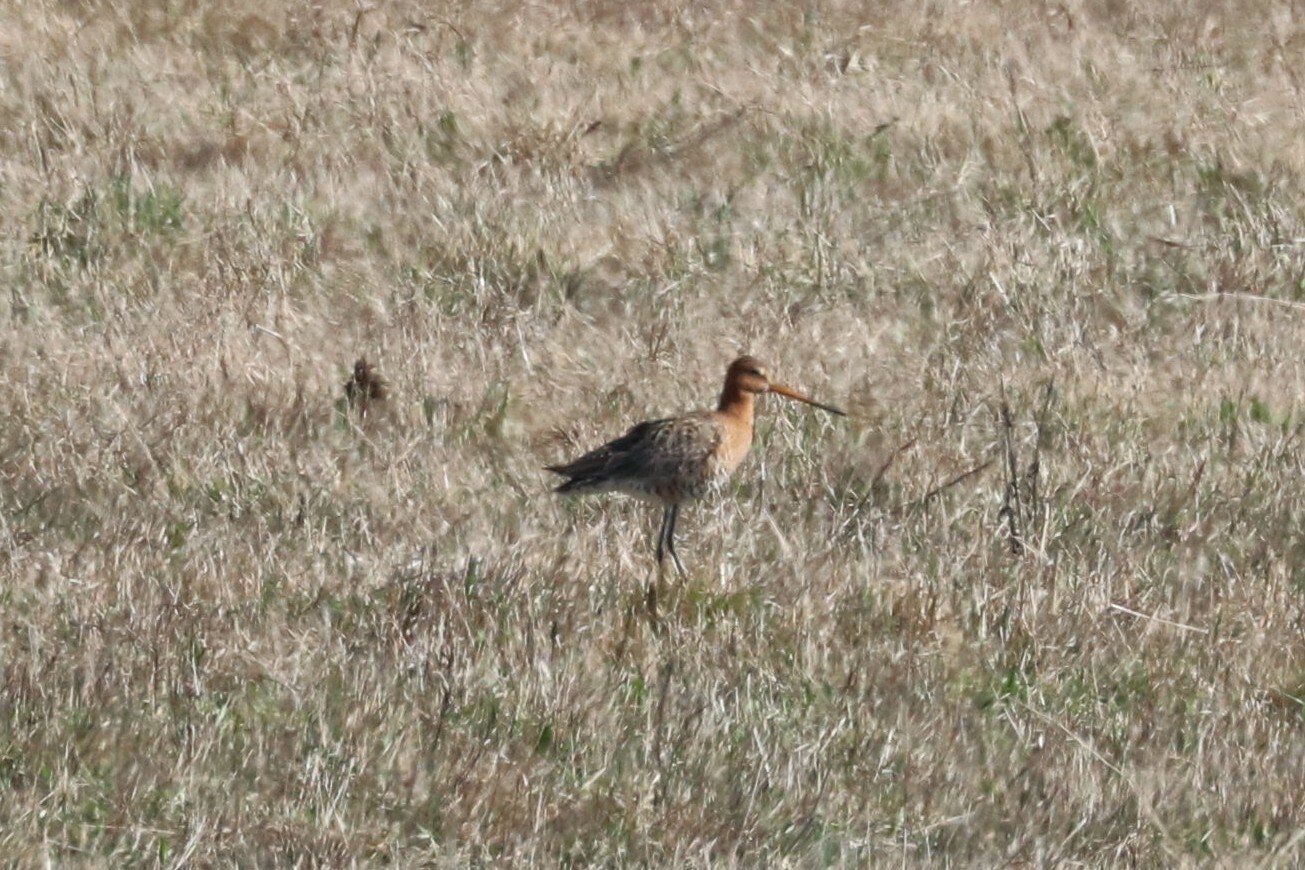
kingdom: Animalia
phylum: Chordata
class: Aves
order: Charadriiformes
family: Scolopacidae
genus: Limosa
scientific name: Limosa limosa
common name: Black-tailed godwit
